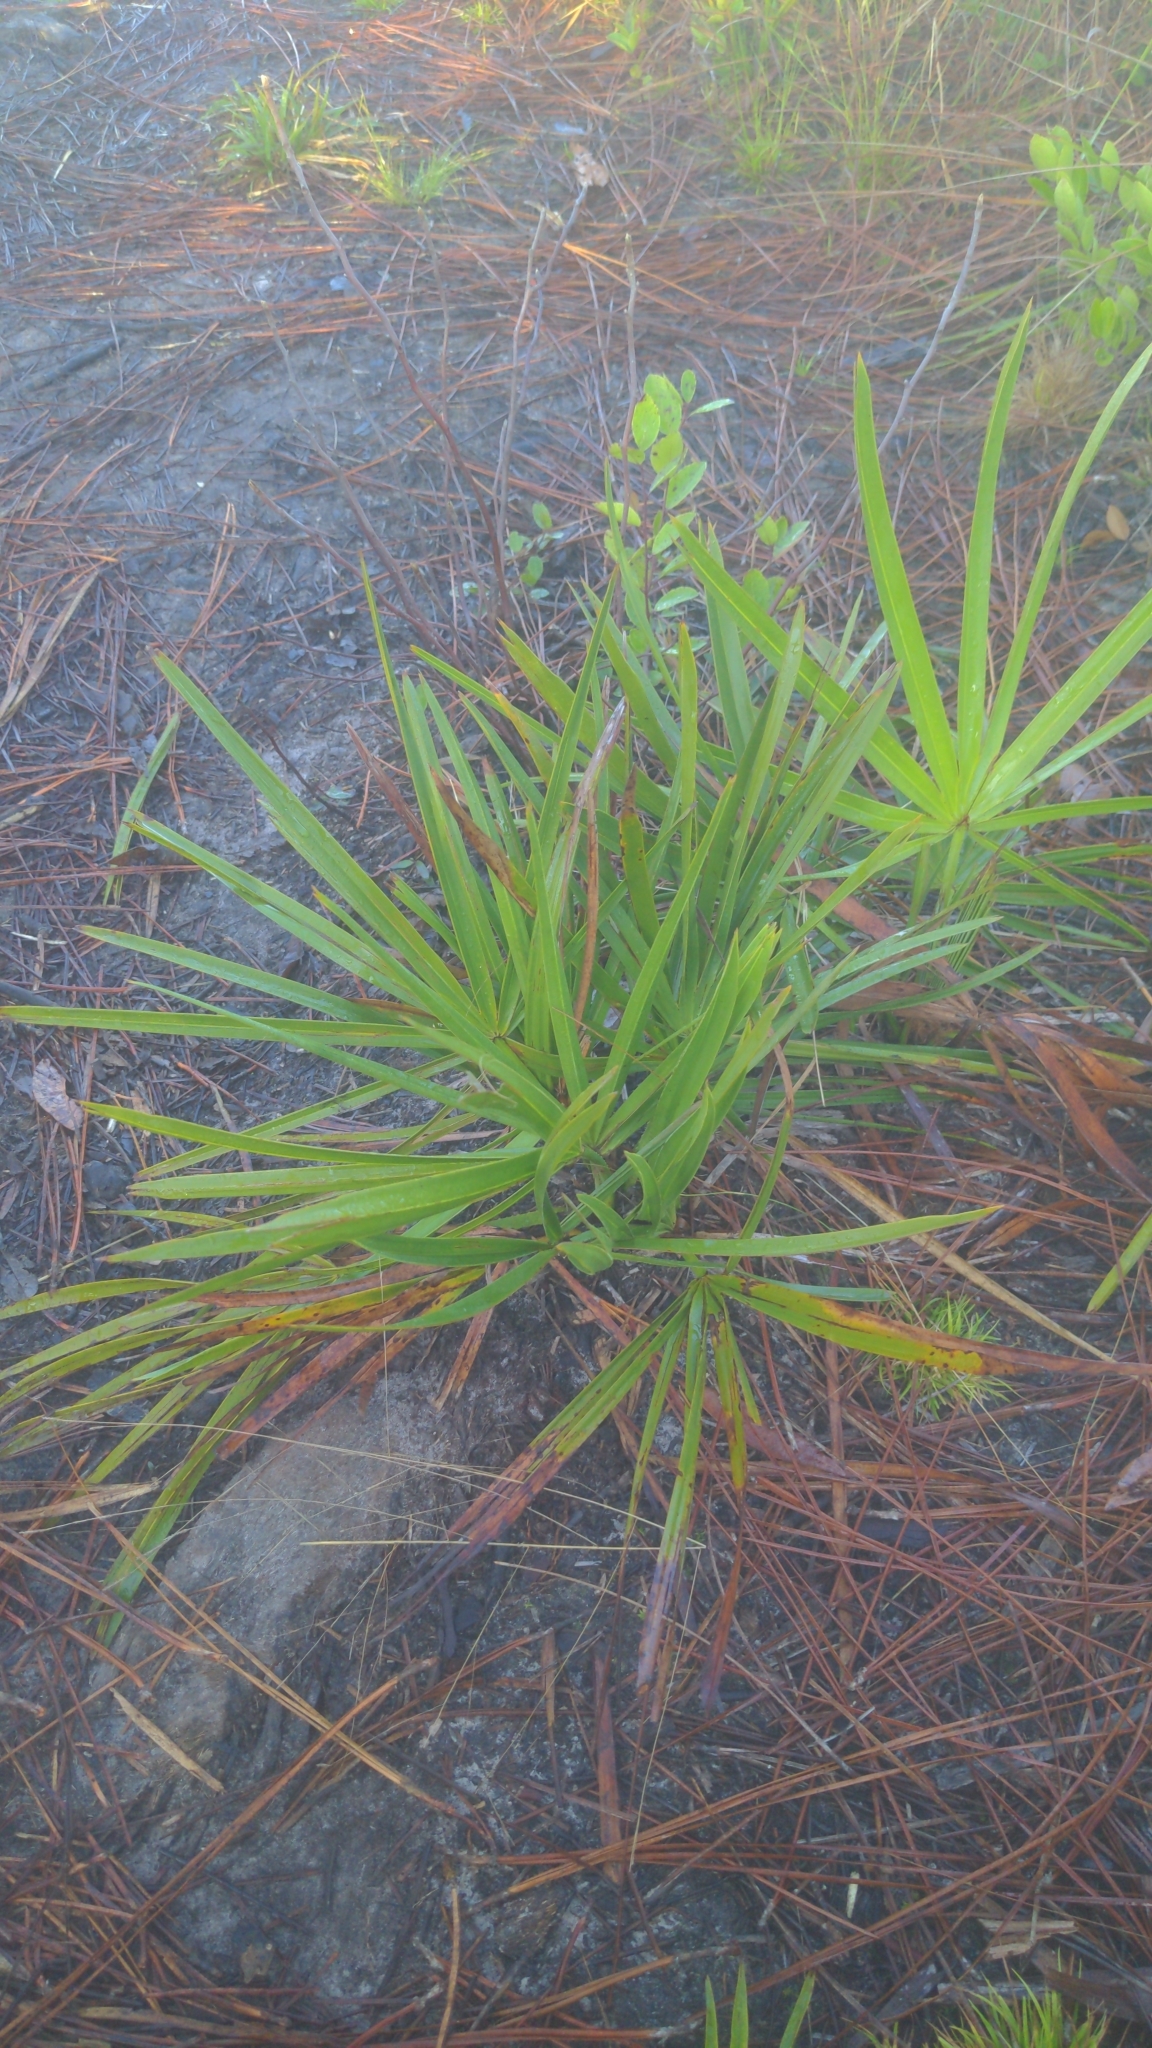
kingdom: Plantae
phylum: Tracheophyta
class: Liliopsida
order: Arecales
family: Arecaceae
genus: Serenoa
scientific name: Serenoa repens
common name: Saw-palmetto
